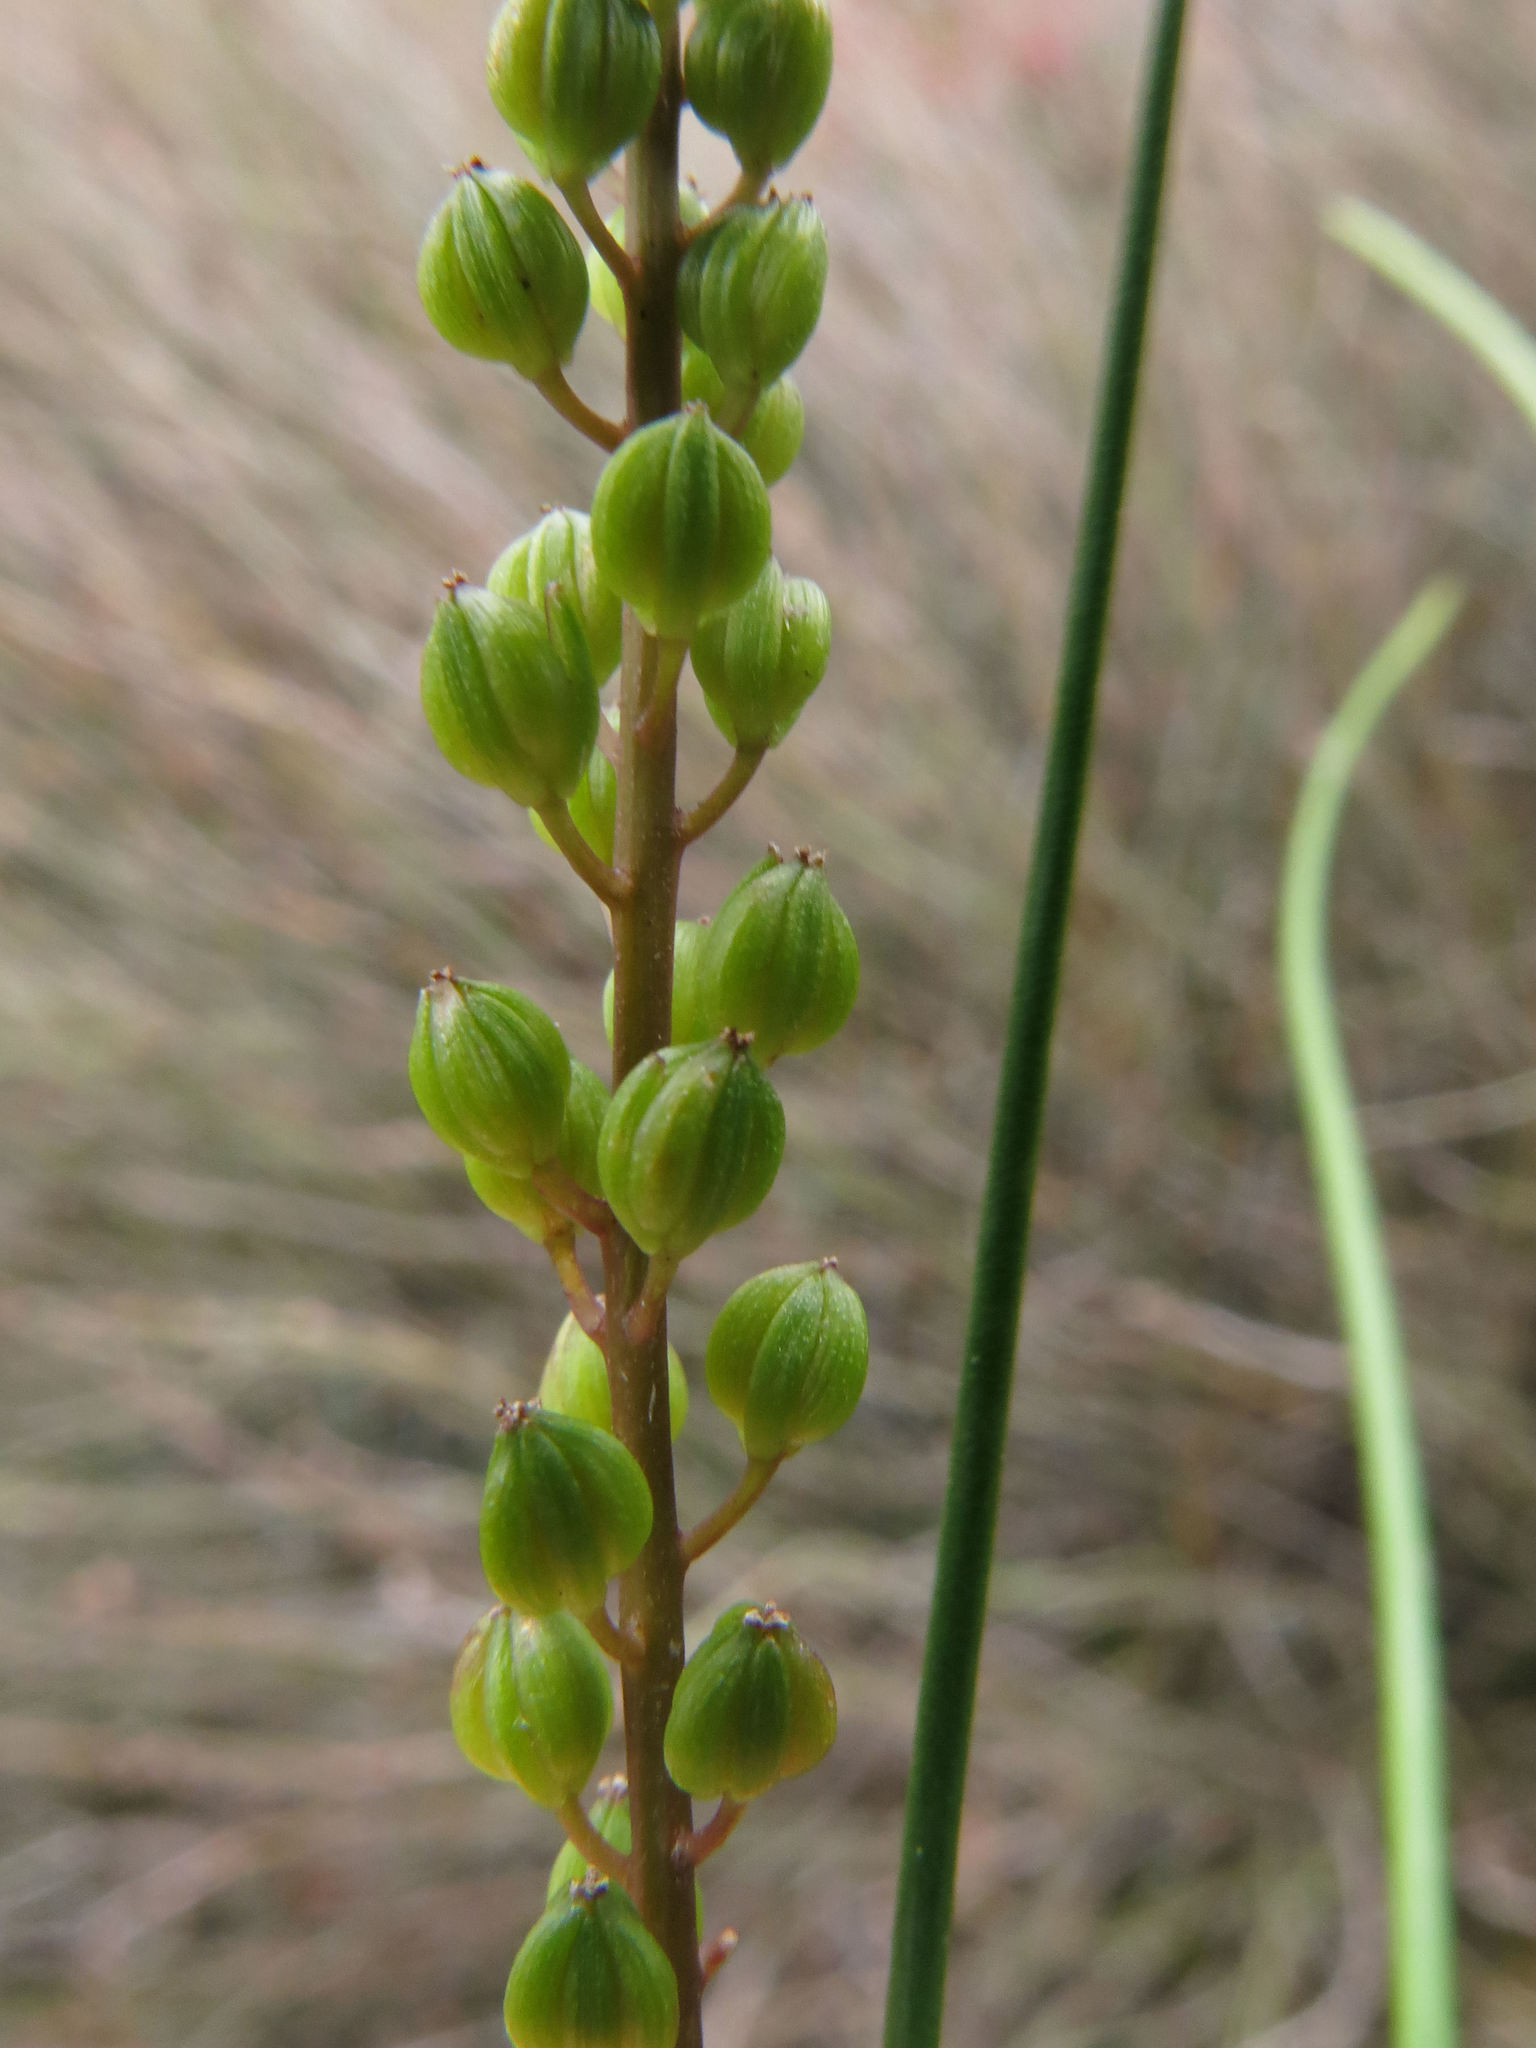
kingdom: Plantae
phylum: Tracheophyta
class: Liliopsida
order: Alismatales
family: Juncaginaceae
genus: Triglochin
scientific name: Triglochin striata
